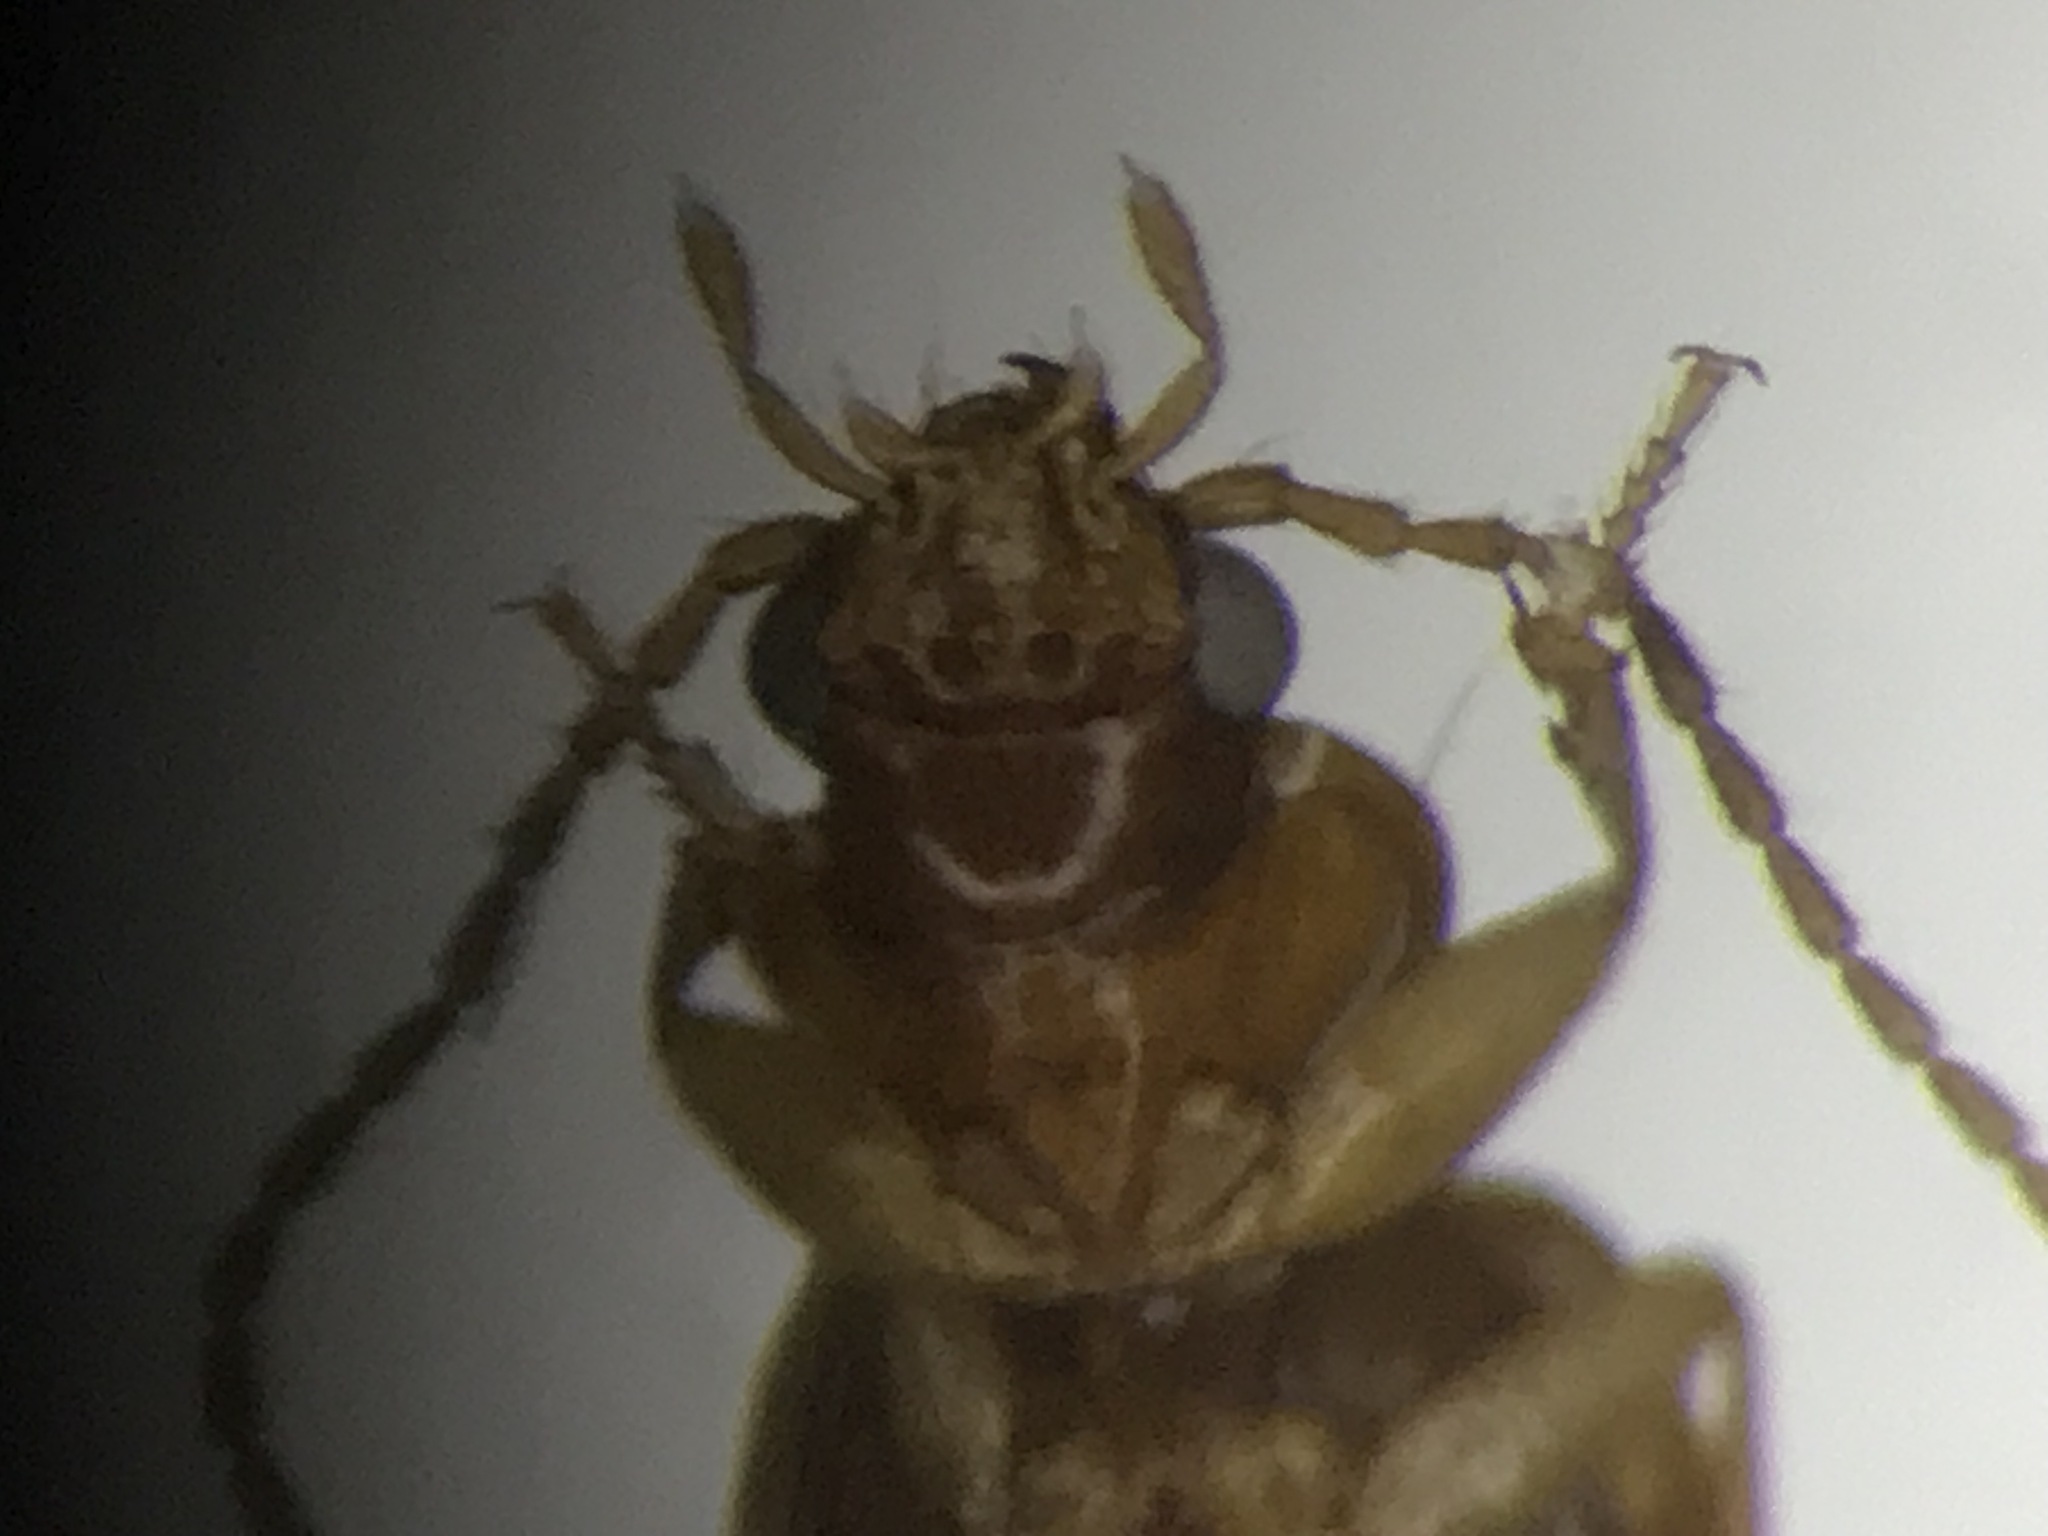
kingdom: Animalia
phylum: Arthropoda
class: Insecta
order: Coleoptera
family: Carabidae
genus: Tachys
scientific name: Tachys scitulus
